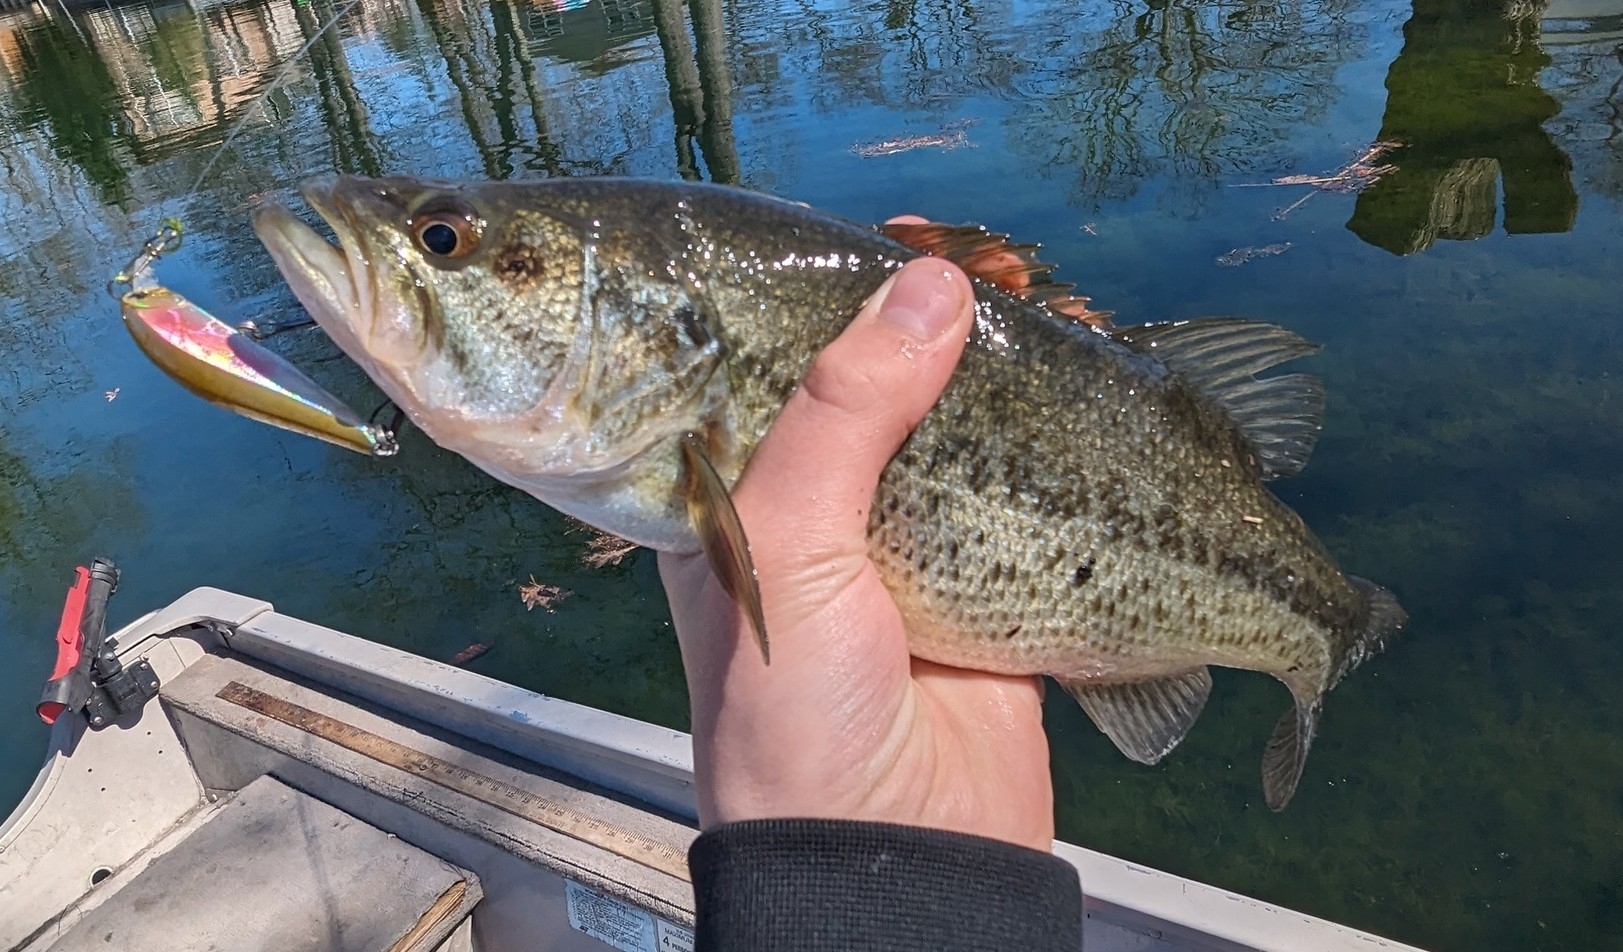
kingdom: Animalia
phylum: Chordata
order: Perciformes
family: Centrarchidae
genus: Micropterus
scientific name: Micropterus
